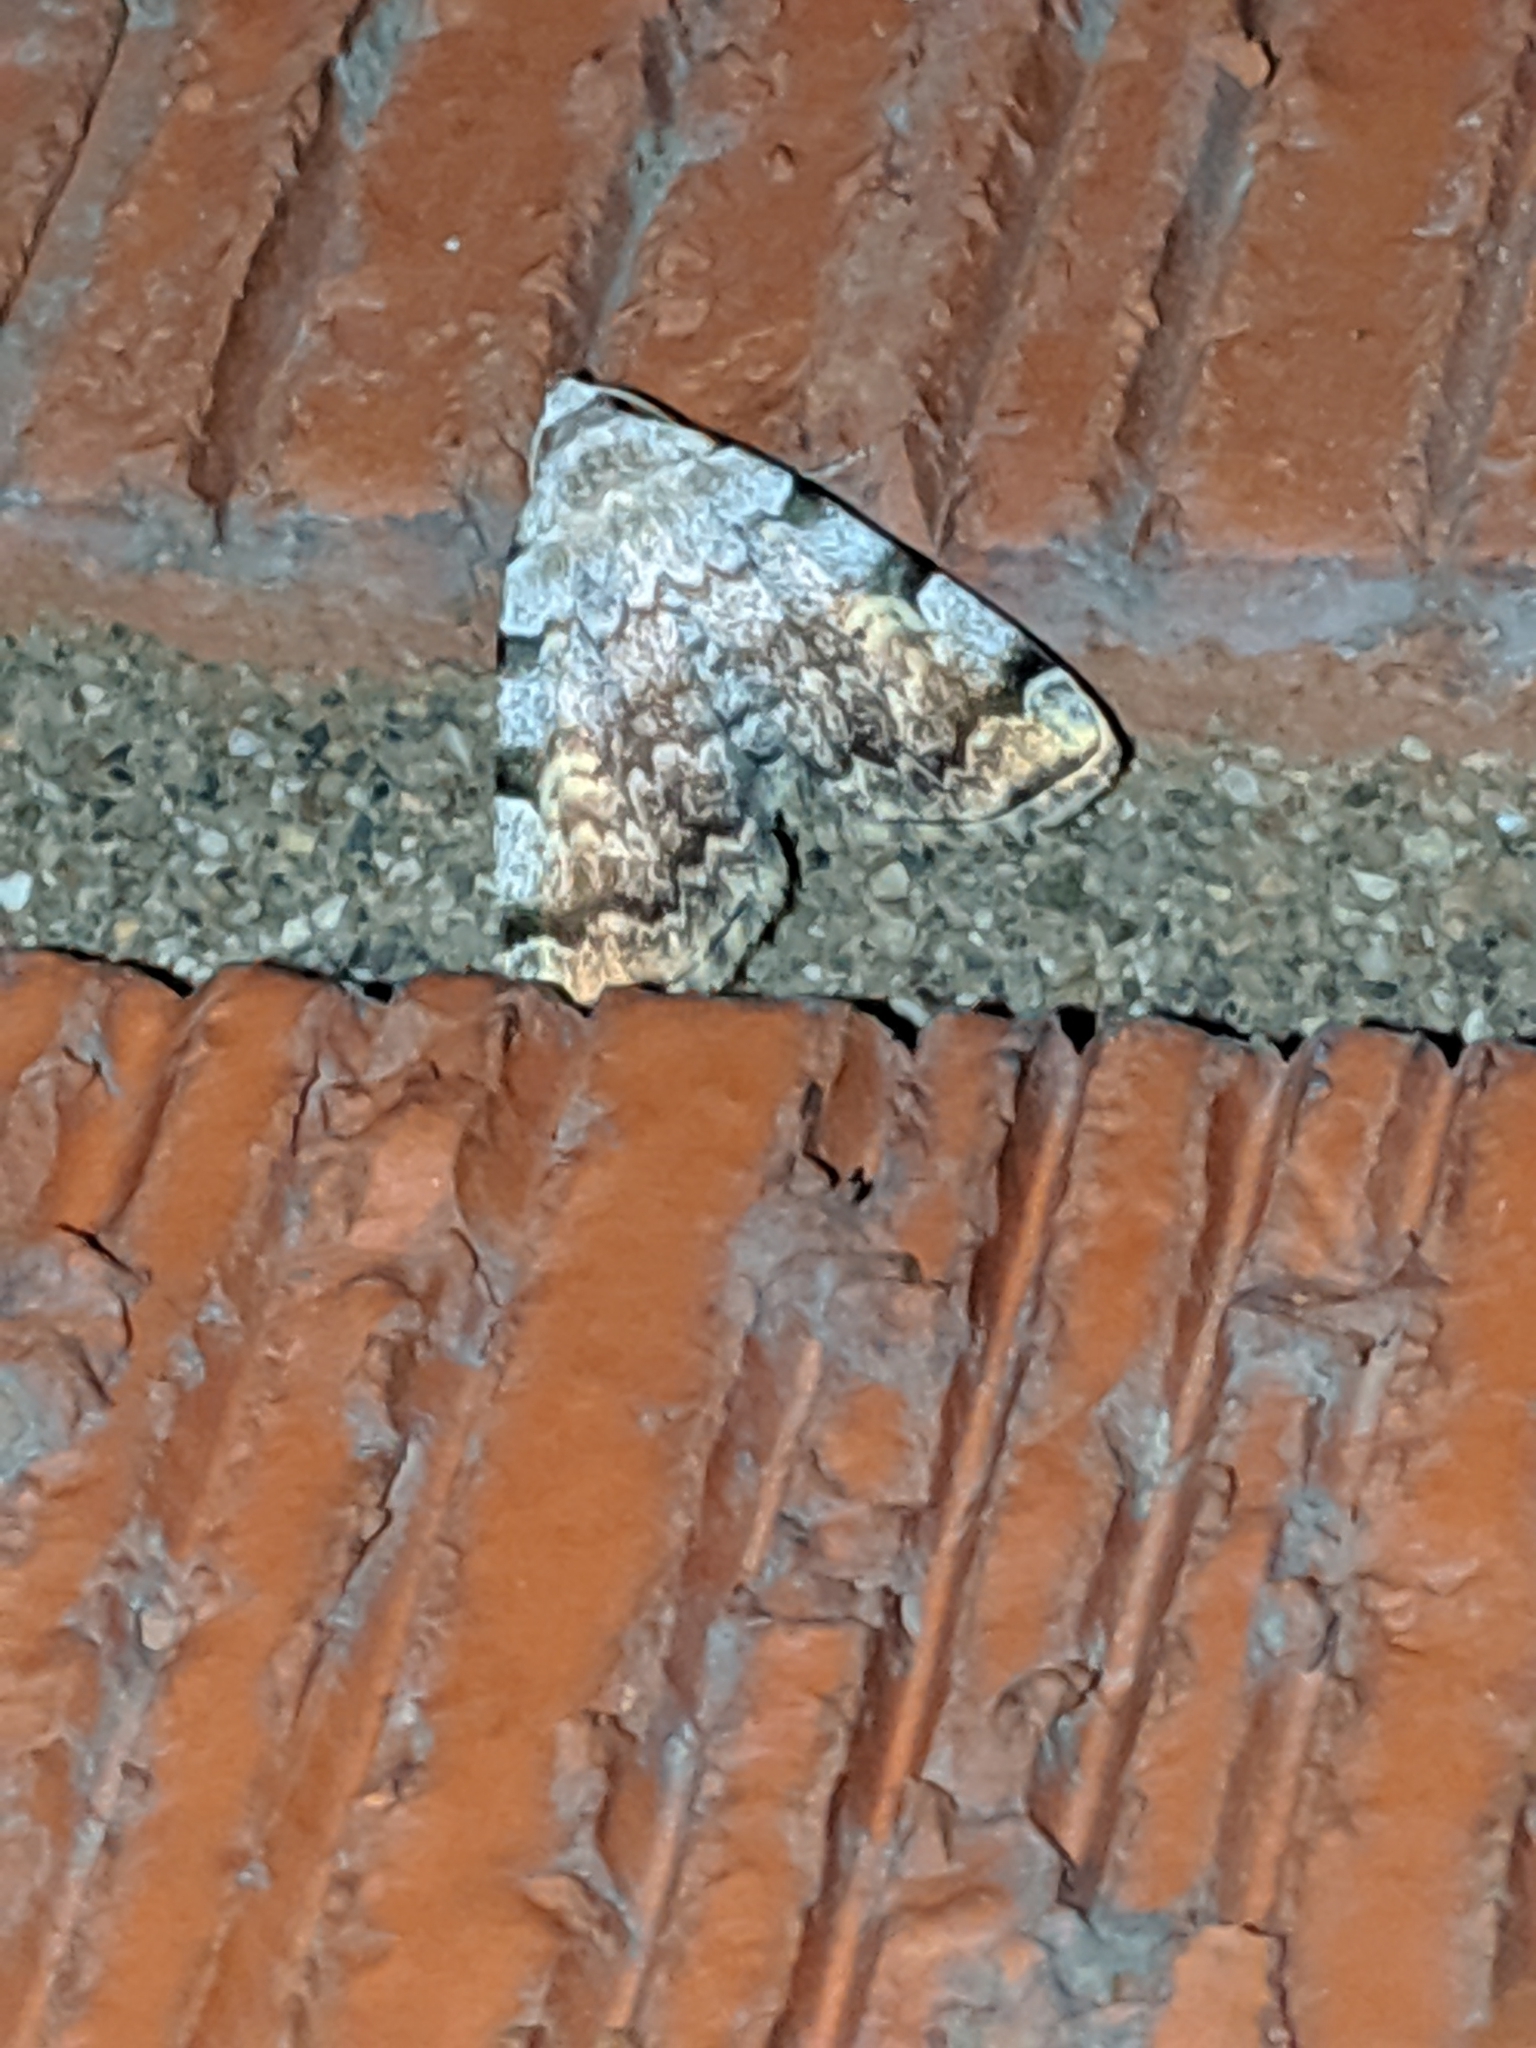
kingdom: Animalia
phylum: Arthropoda
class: Insecta
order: Lepidoptera
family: Erebidae
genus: Idia
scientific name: Idia americalis
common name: American idia moth
